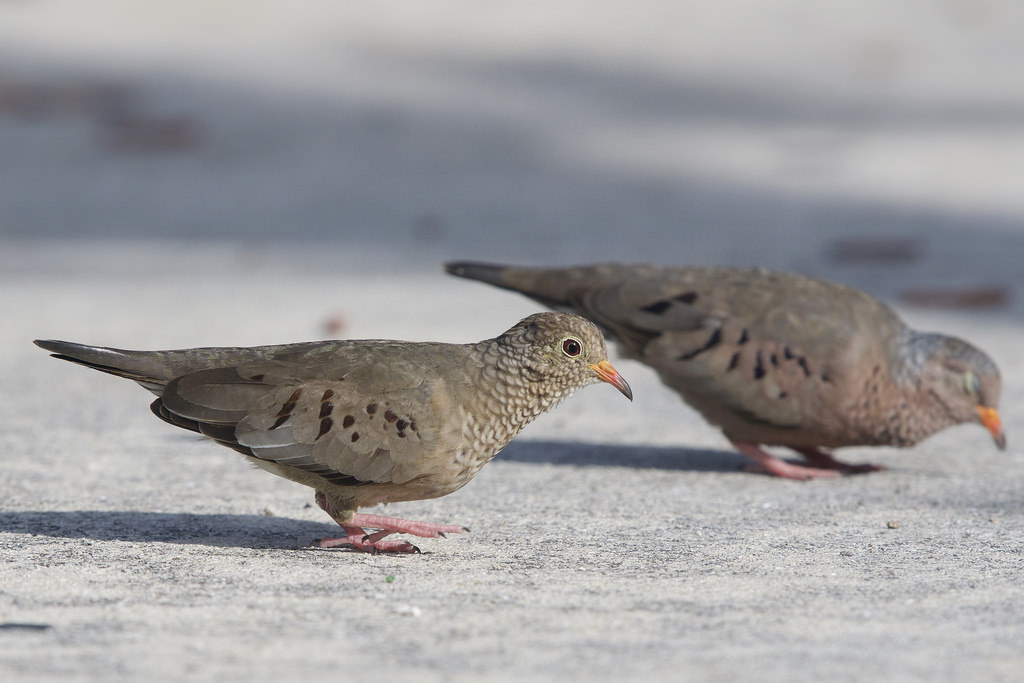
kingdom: Animalia
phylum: Chordata
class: Aves
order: Columbiformes
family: Columbidae
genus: Columbina
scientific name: Columbina passerina
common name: Common ground-dove
